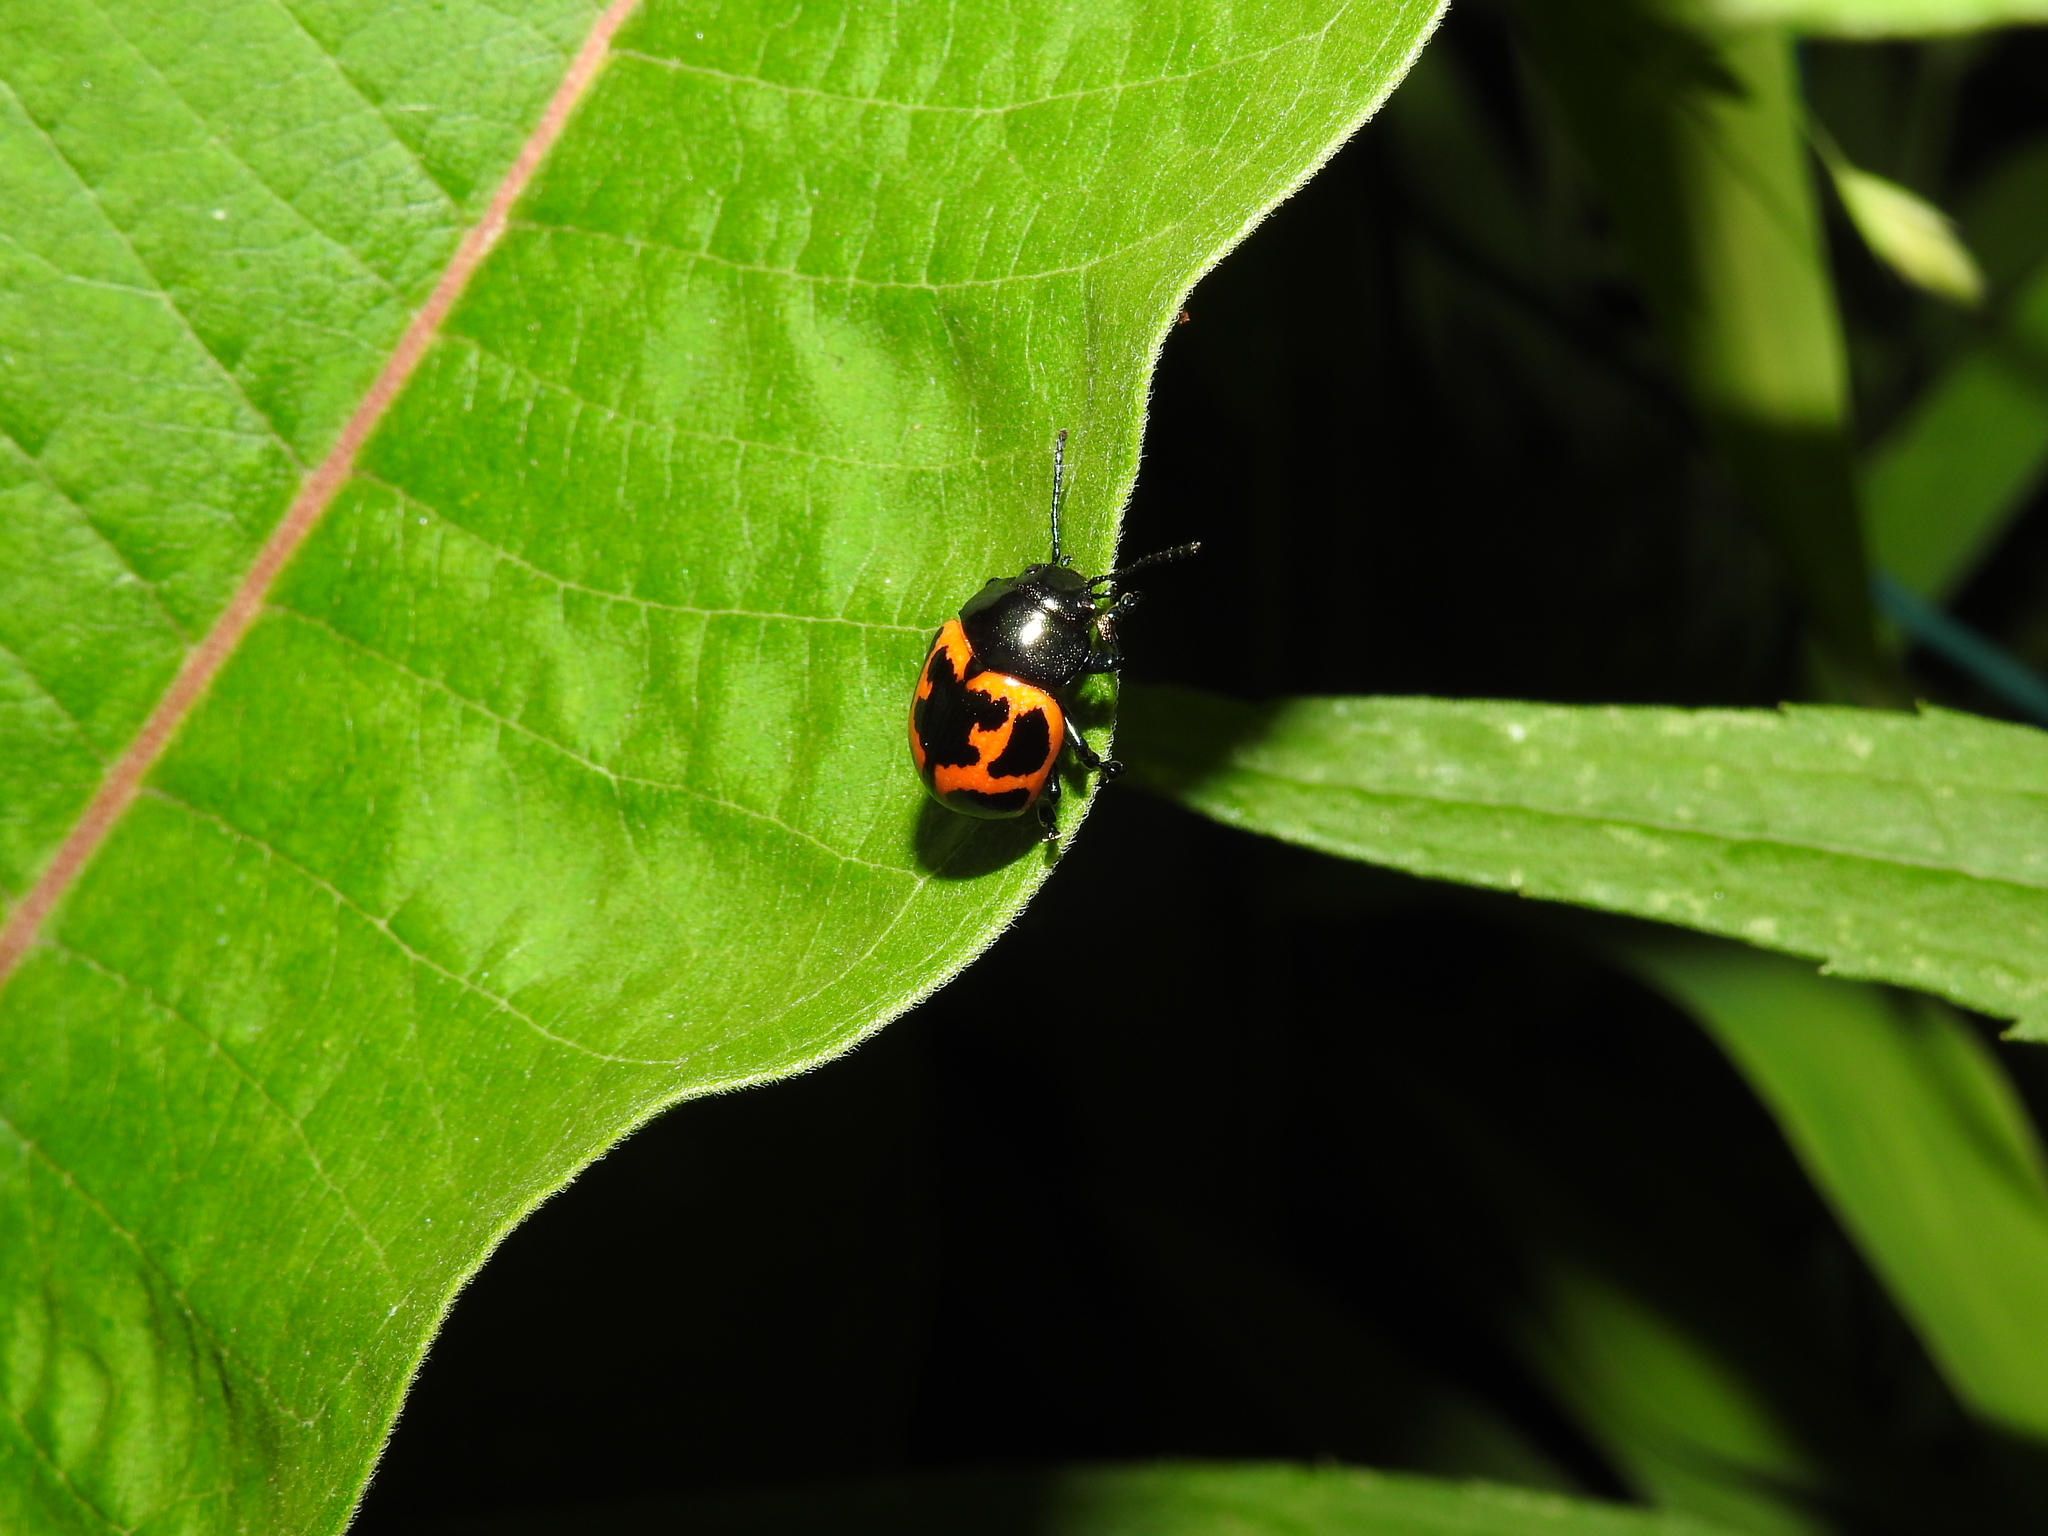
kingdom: Animalia
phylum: Arthropoda
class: Insecta
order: Coleoptera
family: Chrysomelidae
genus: Labidomera
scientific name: Labidomera clivicollis
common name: Swamp milkweed leaf beetle
